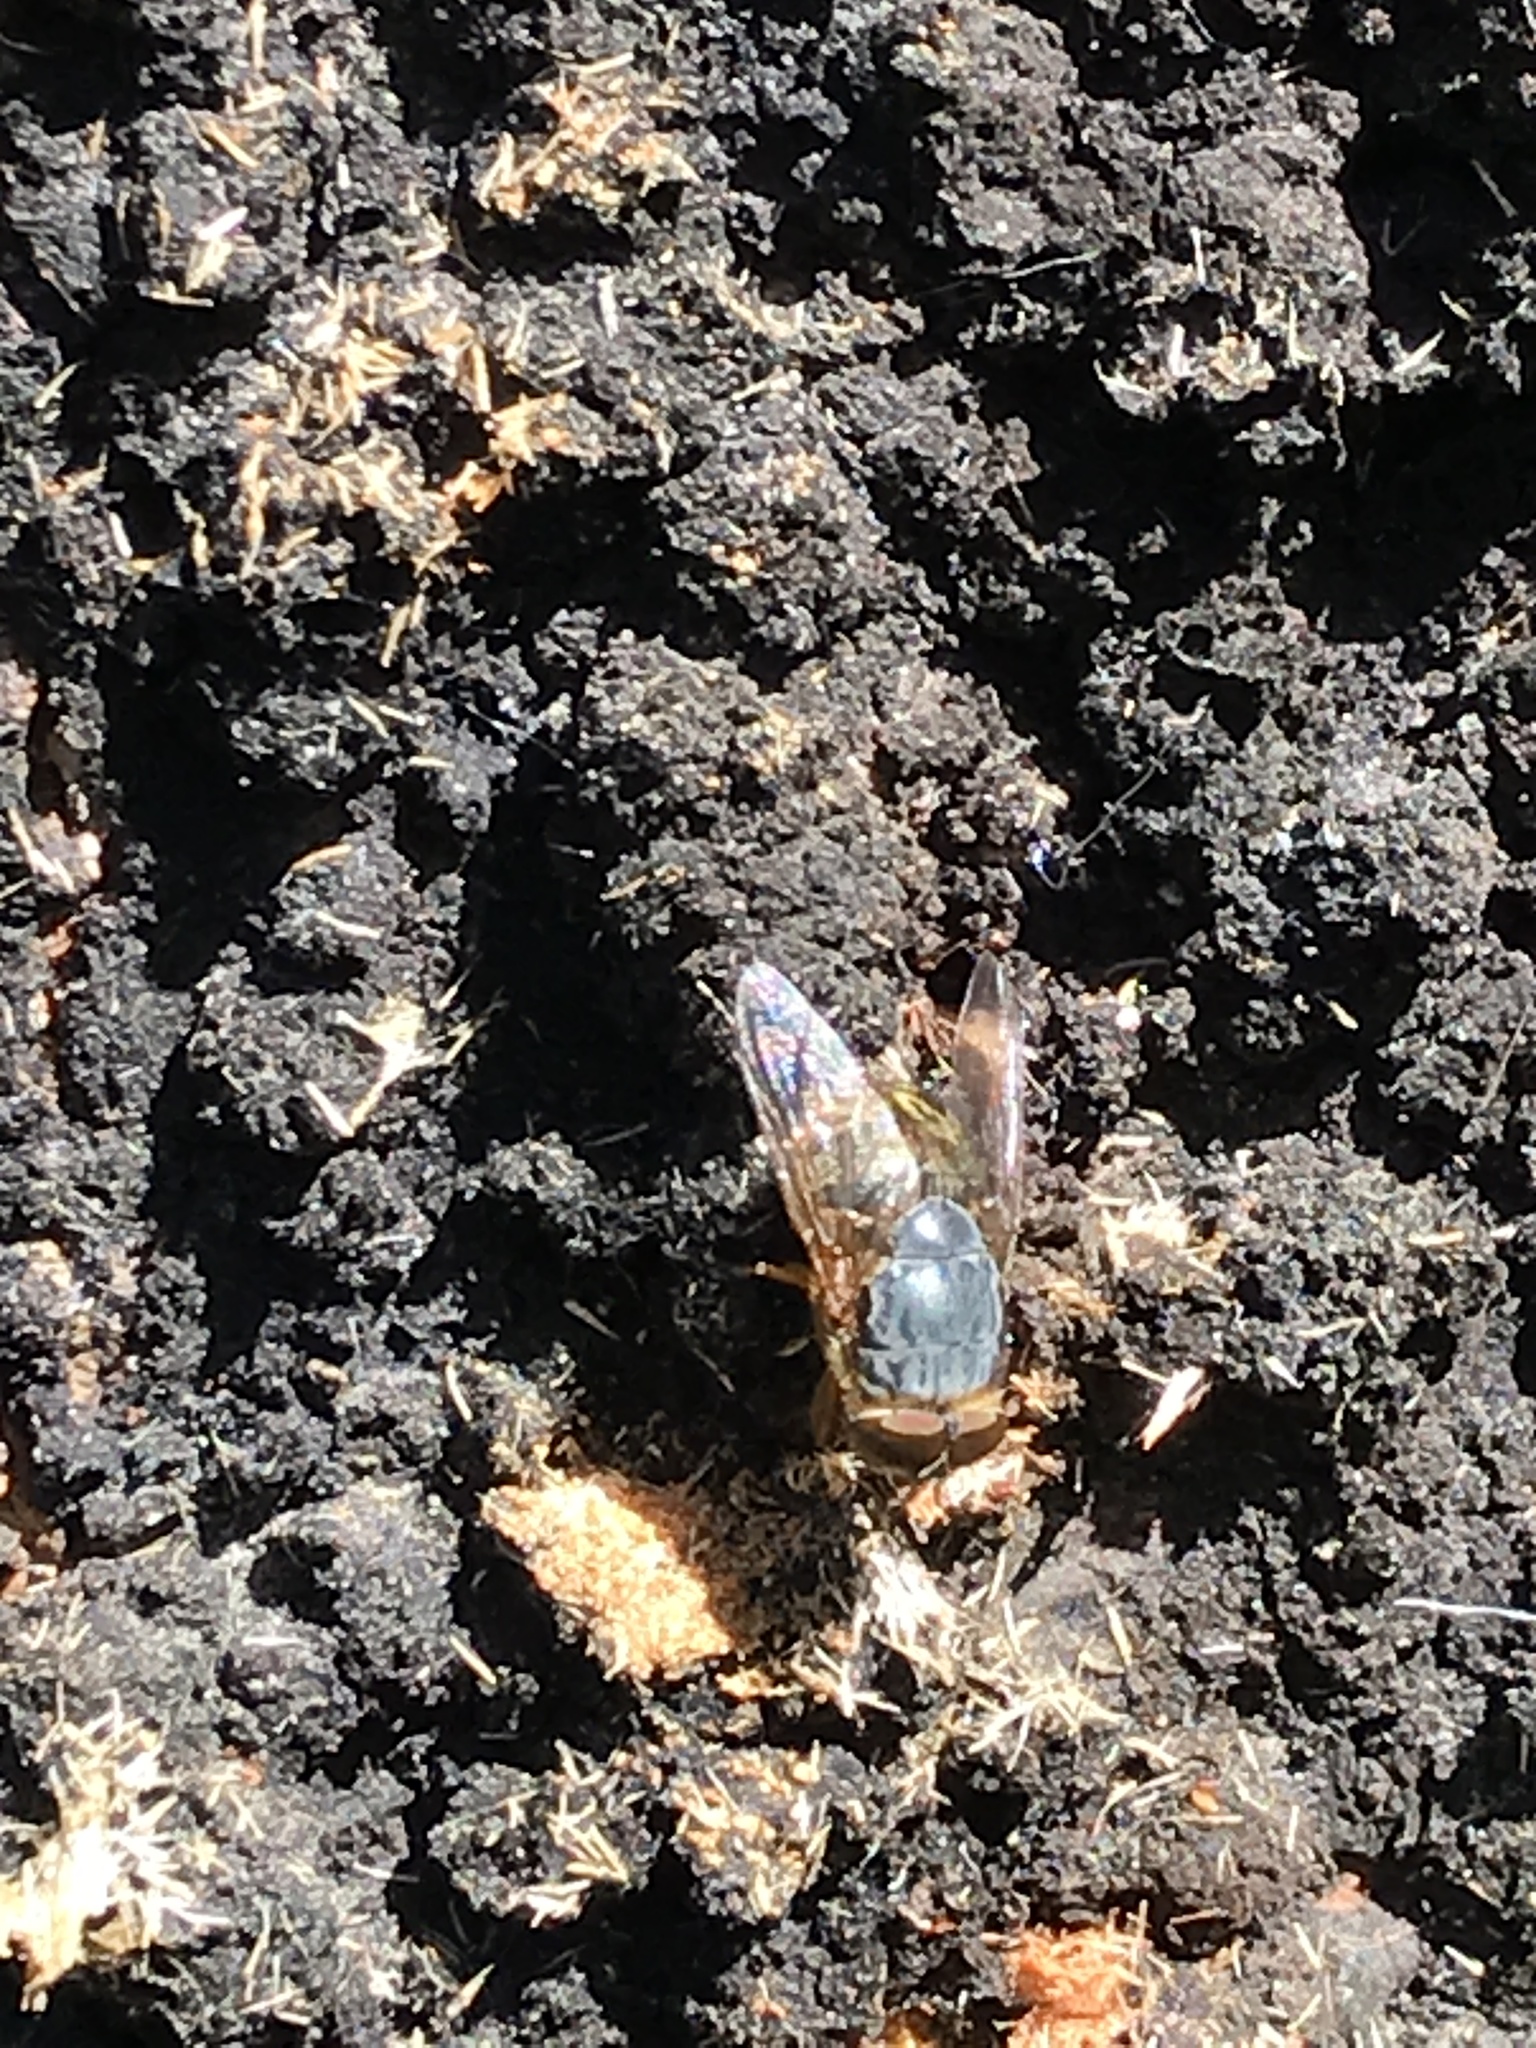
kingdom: Animalia
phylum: Arthropoda
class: Insecta
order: Diptera
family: Calliphoridae
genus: Calliphora
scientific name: Calliphora
